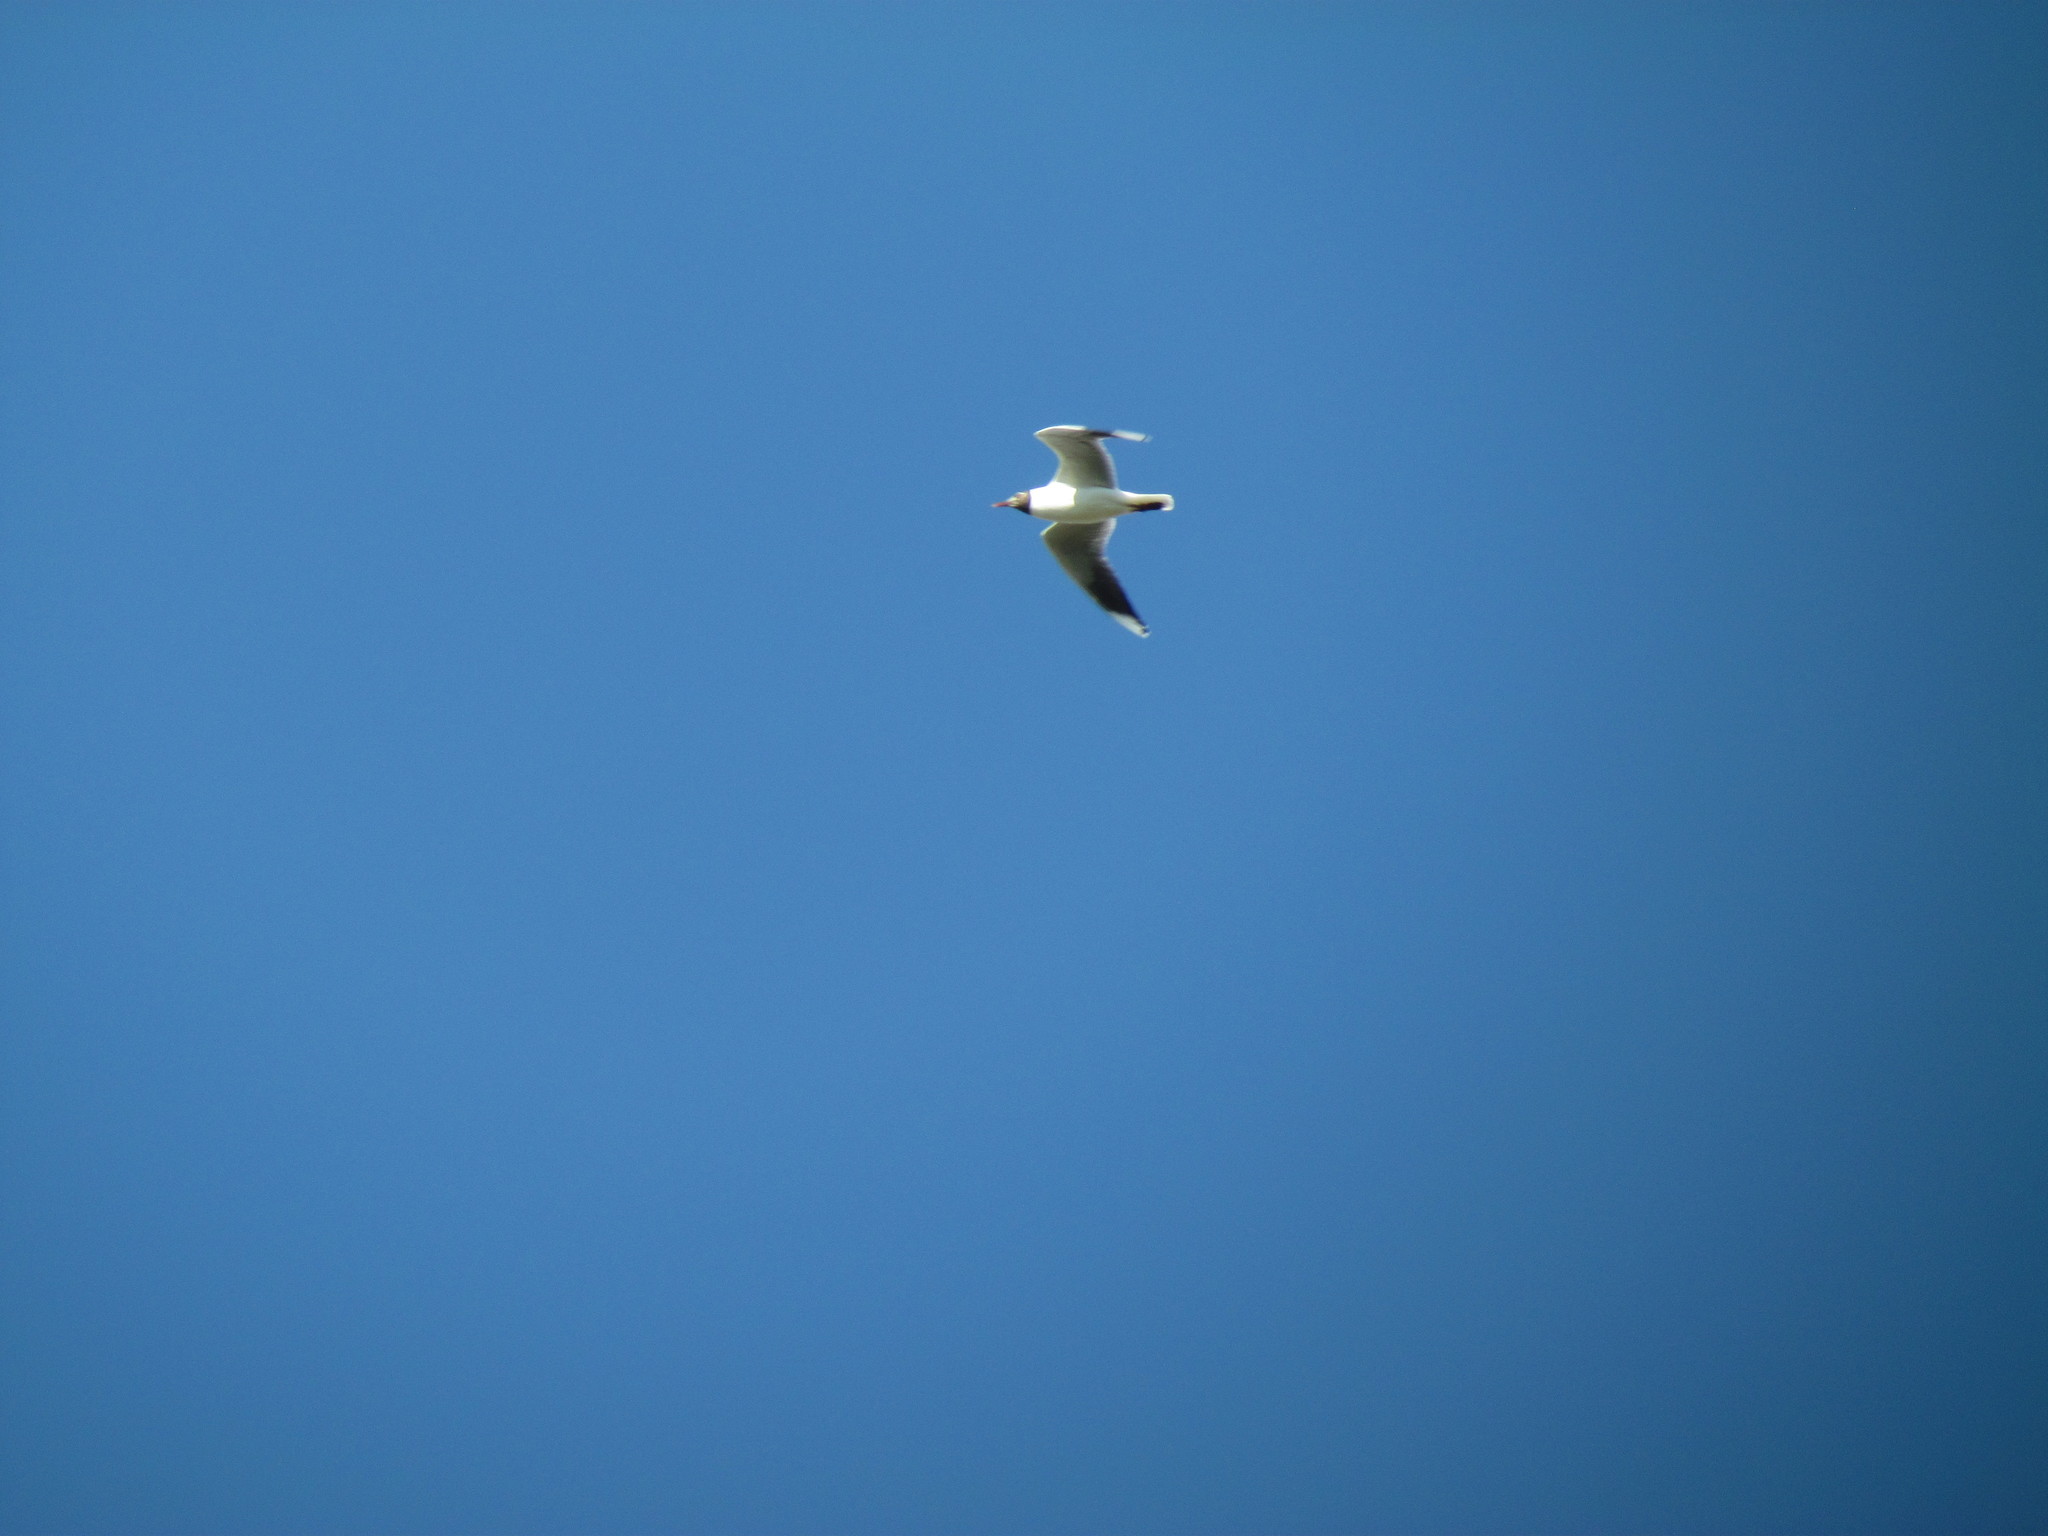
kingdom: Animalia
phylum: Chordata
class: Aves
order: Charadriiformes
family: Laridae
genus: Chroicocephalus
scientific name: Chroicocephalus maculipennis
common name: Brown-hooded gull
